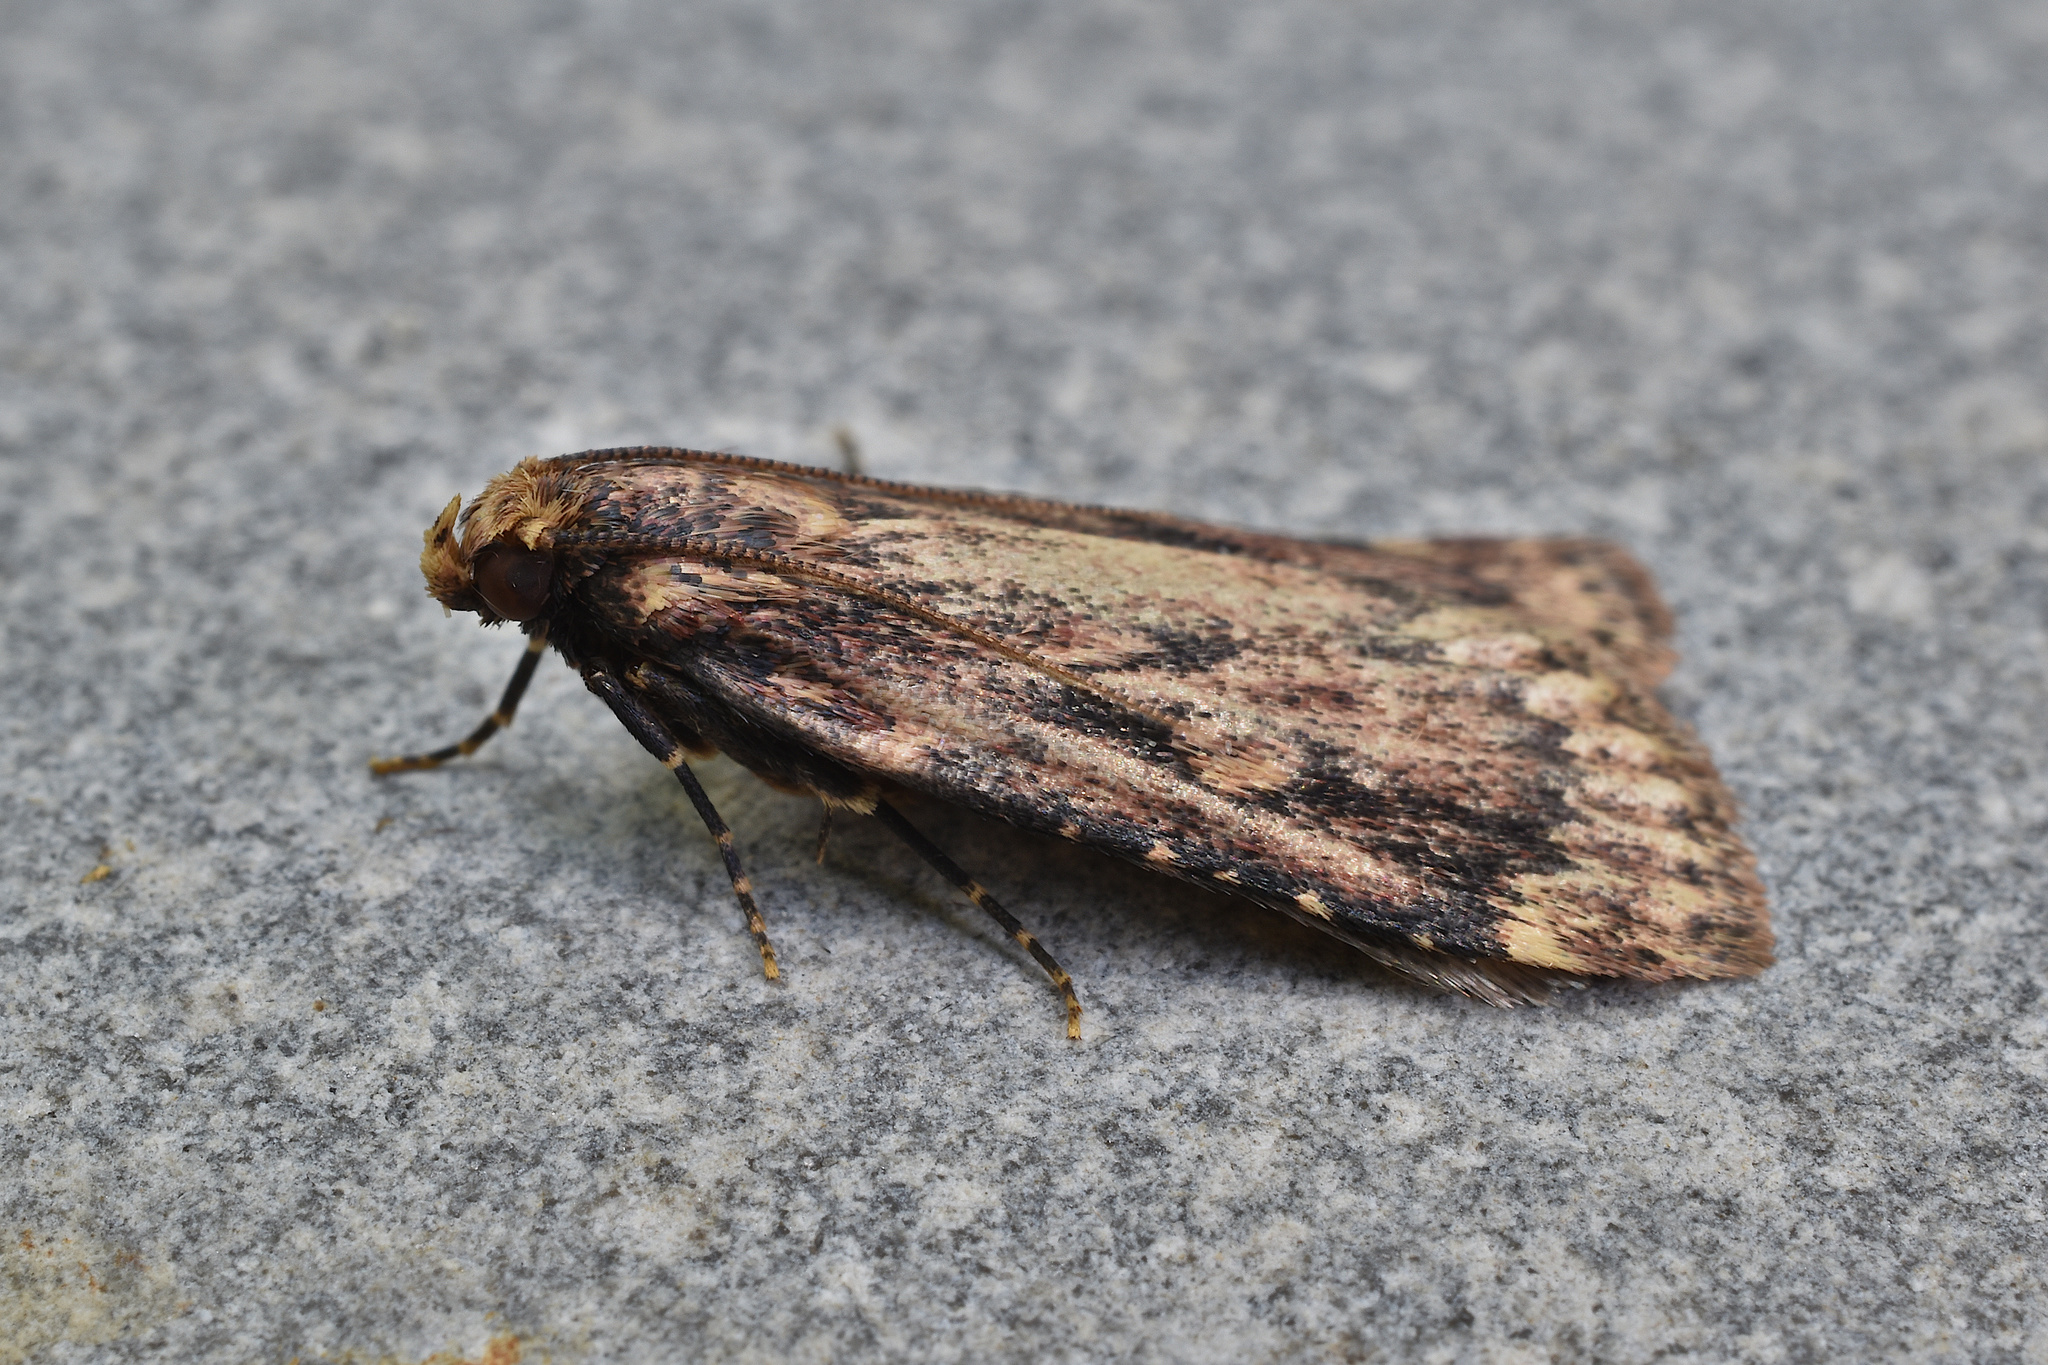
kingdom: Animalia
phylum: Arthropoda
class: Insecta
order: Lepidoptera
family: Pyralidae
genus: Aglossa
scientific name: Aglossa cuprina
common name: Grease moth
